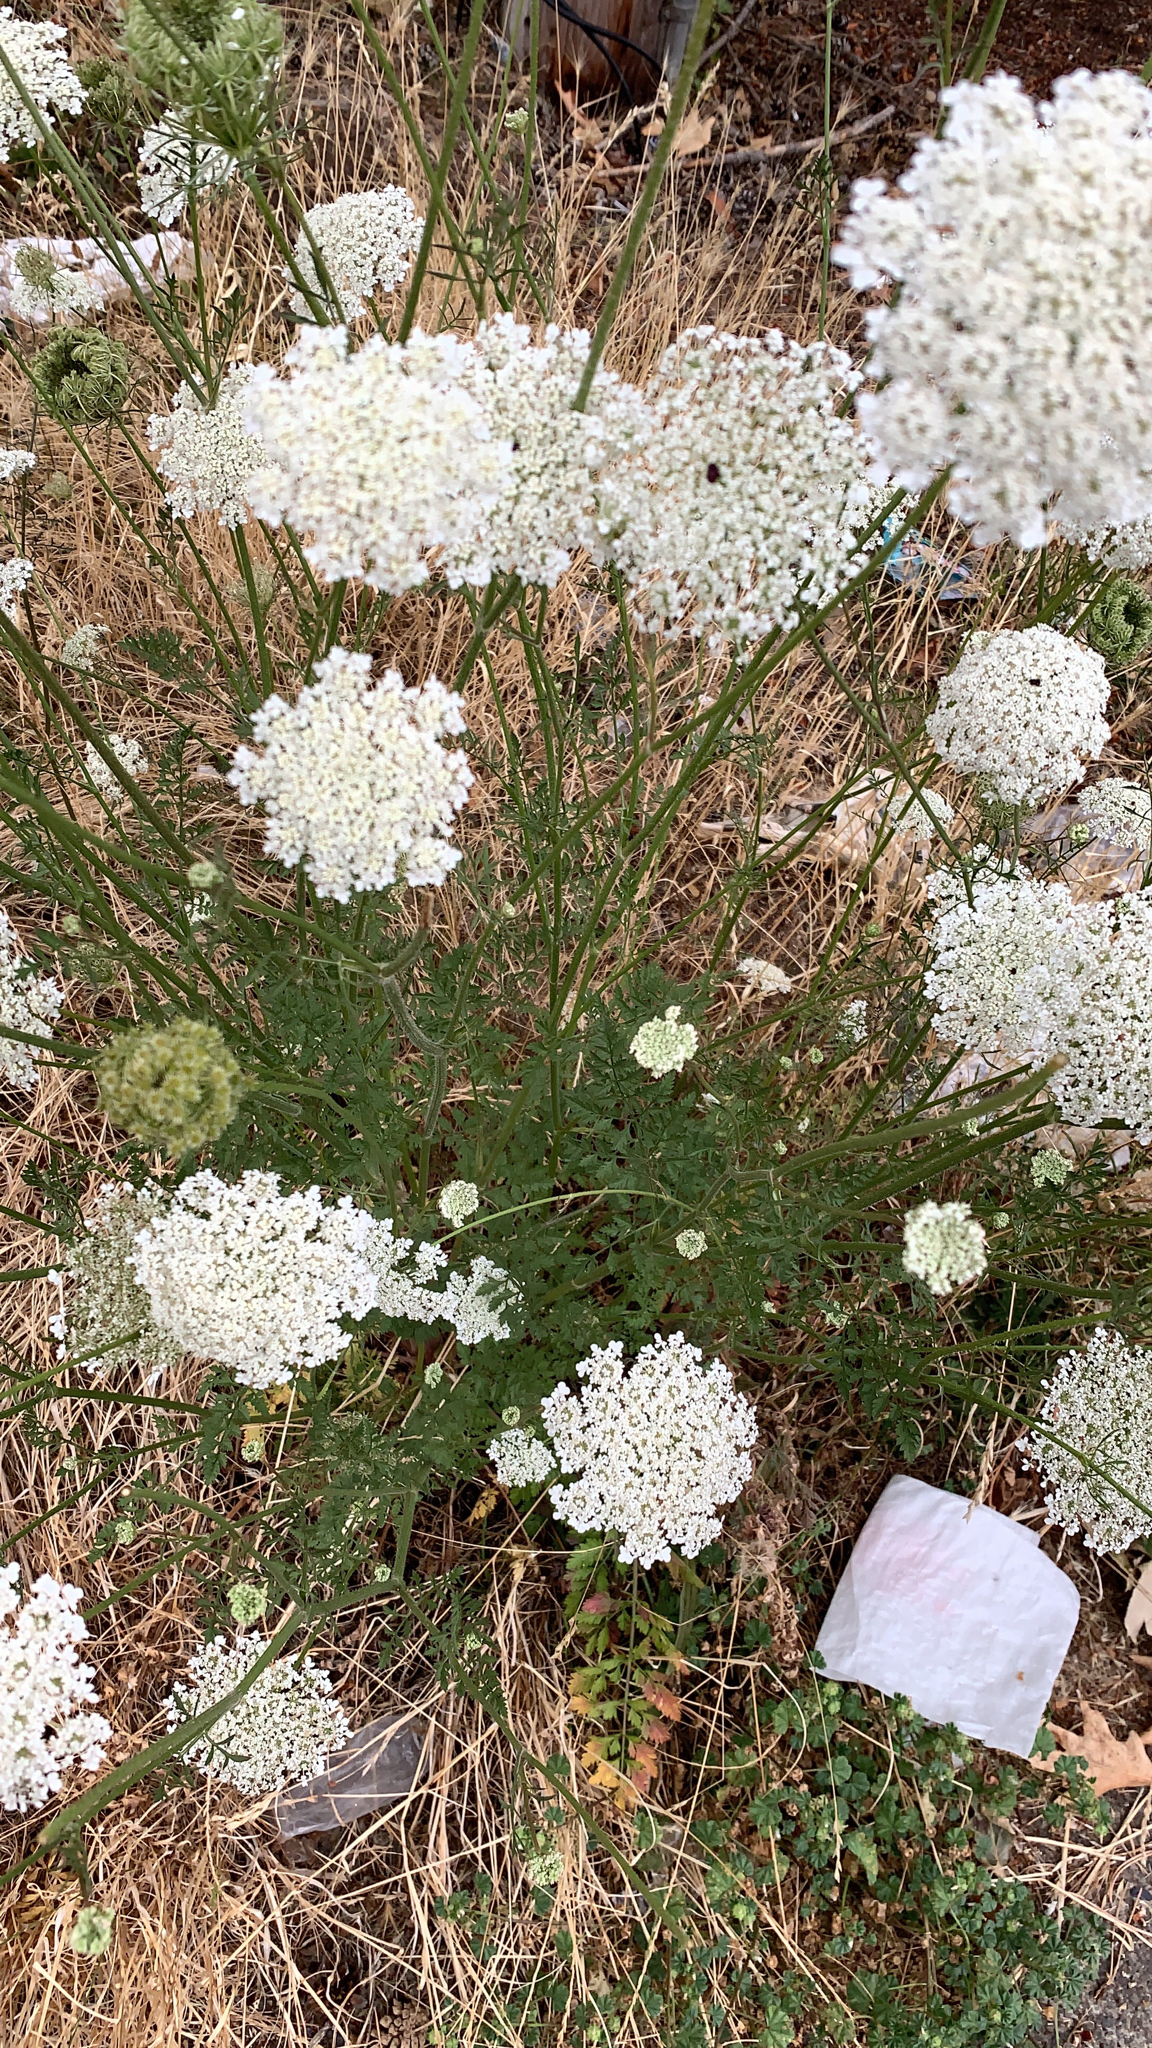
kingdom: Plantae
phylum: Tracheophyta
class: Magnoliopsida
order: Apiales
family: Apiaceae
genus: Daucus
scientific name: Daucus carota
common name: Wild carrot
